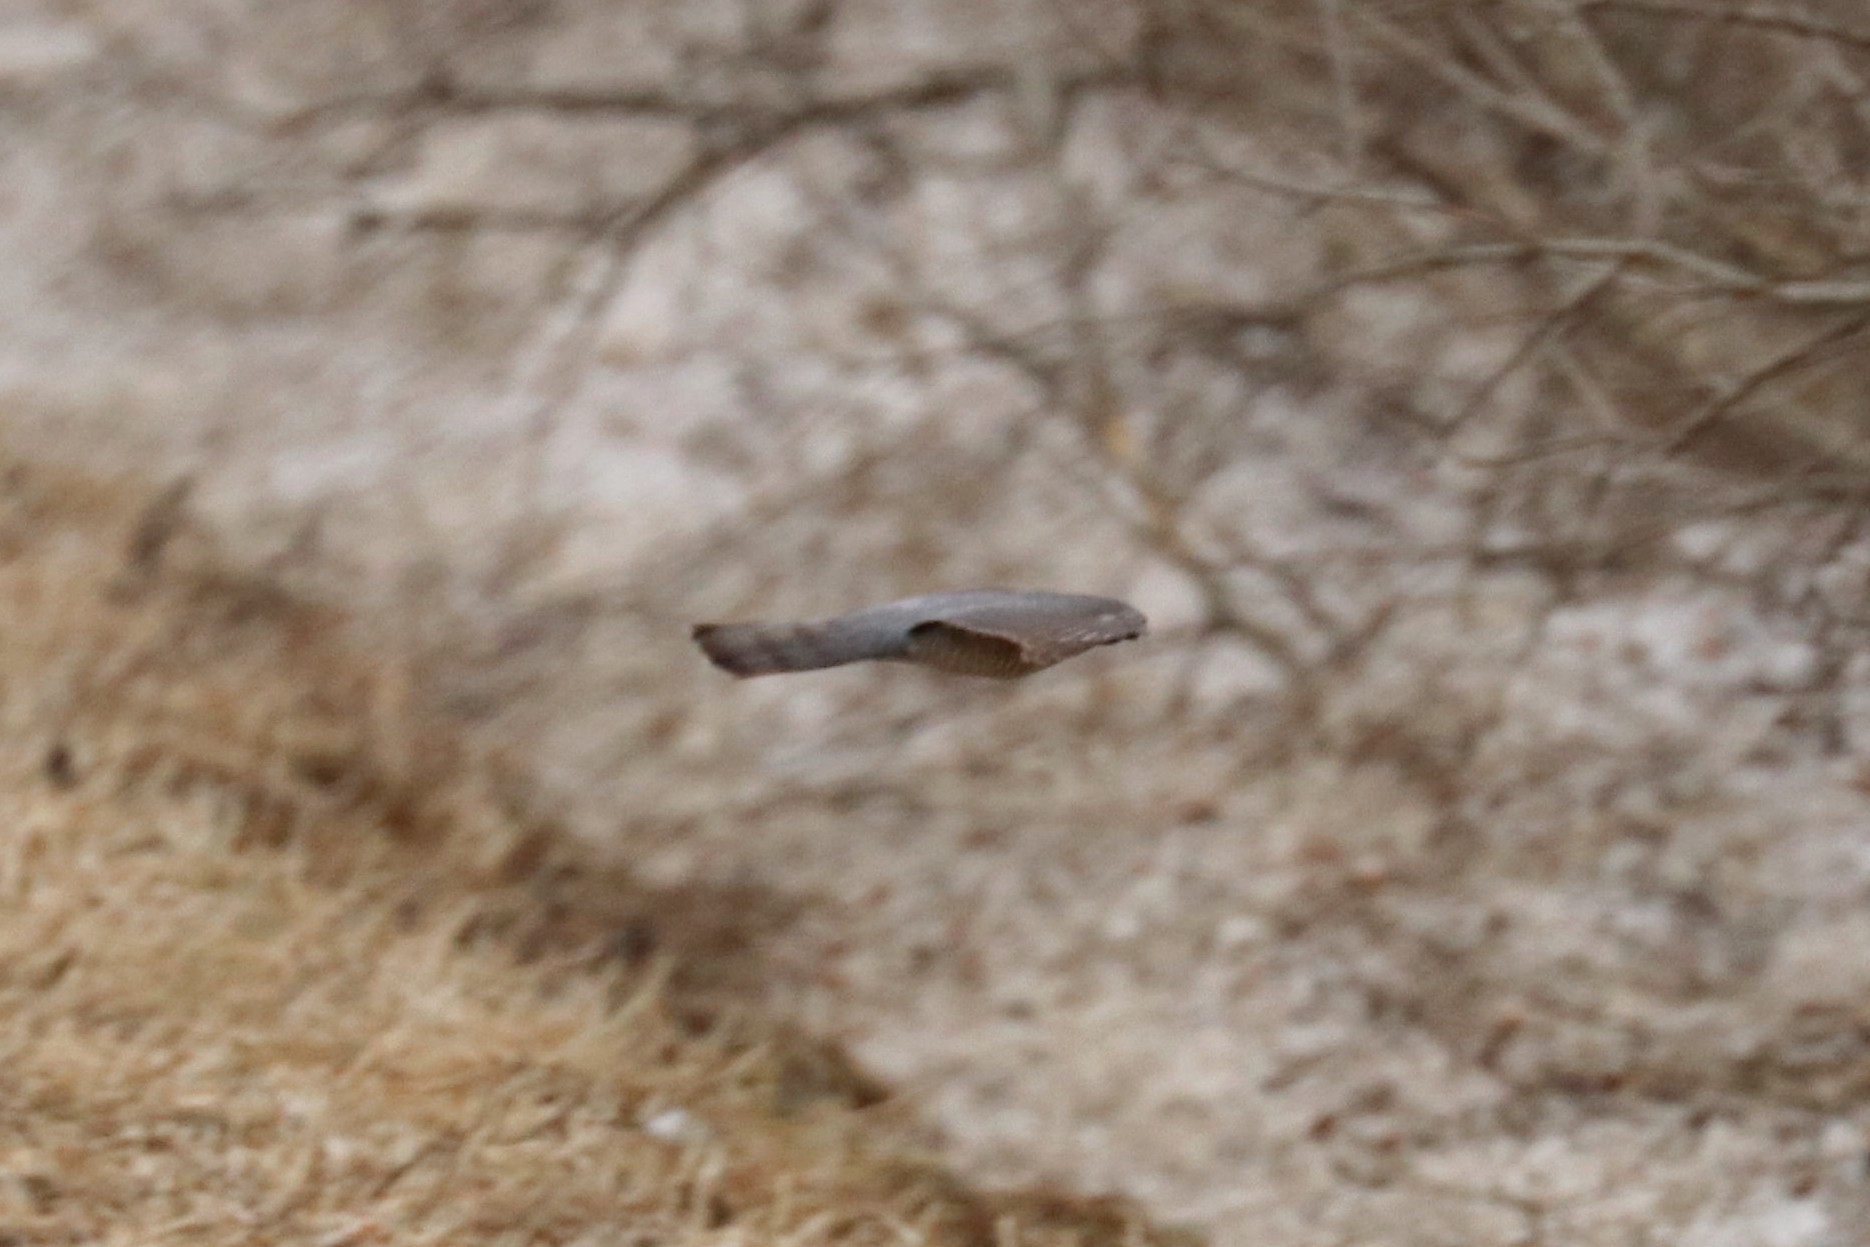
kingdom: Animalia
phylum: Chordata
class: Aves
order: Accipitriformes
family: Accipitridae
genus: Accipiter
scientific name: Accipiter nisus
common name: Eurasian sparrowhawk
